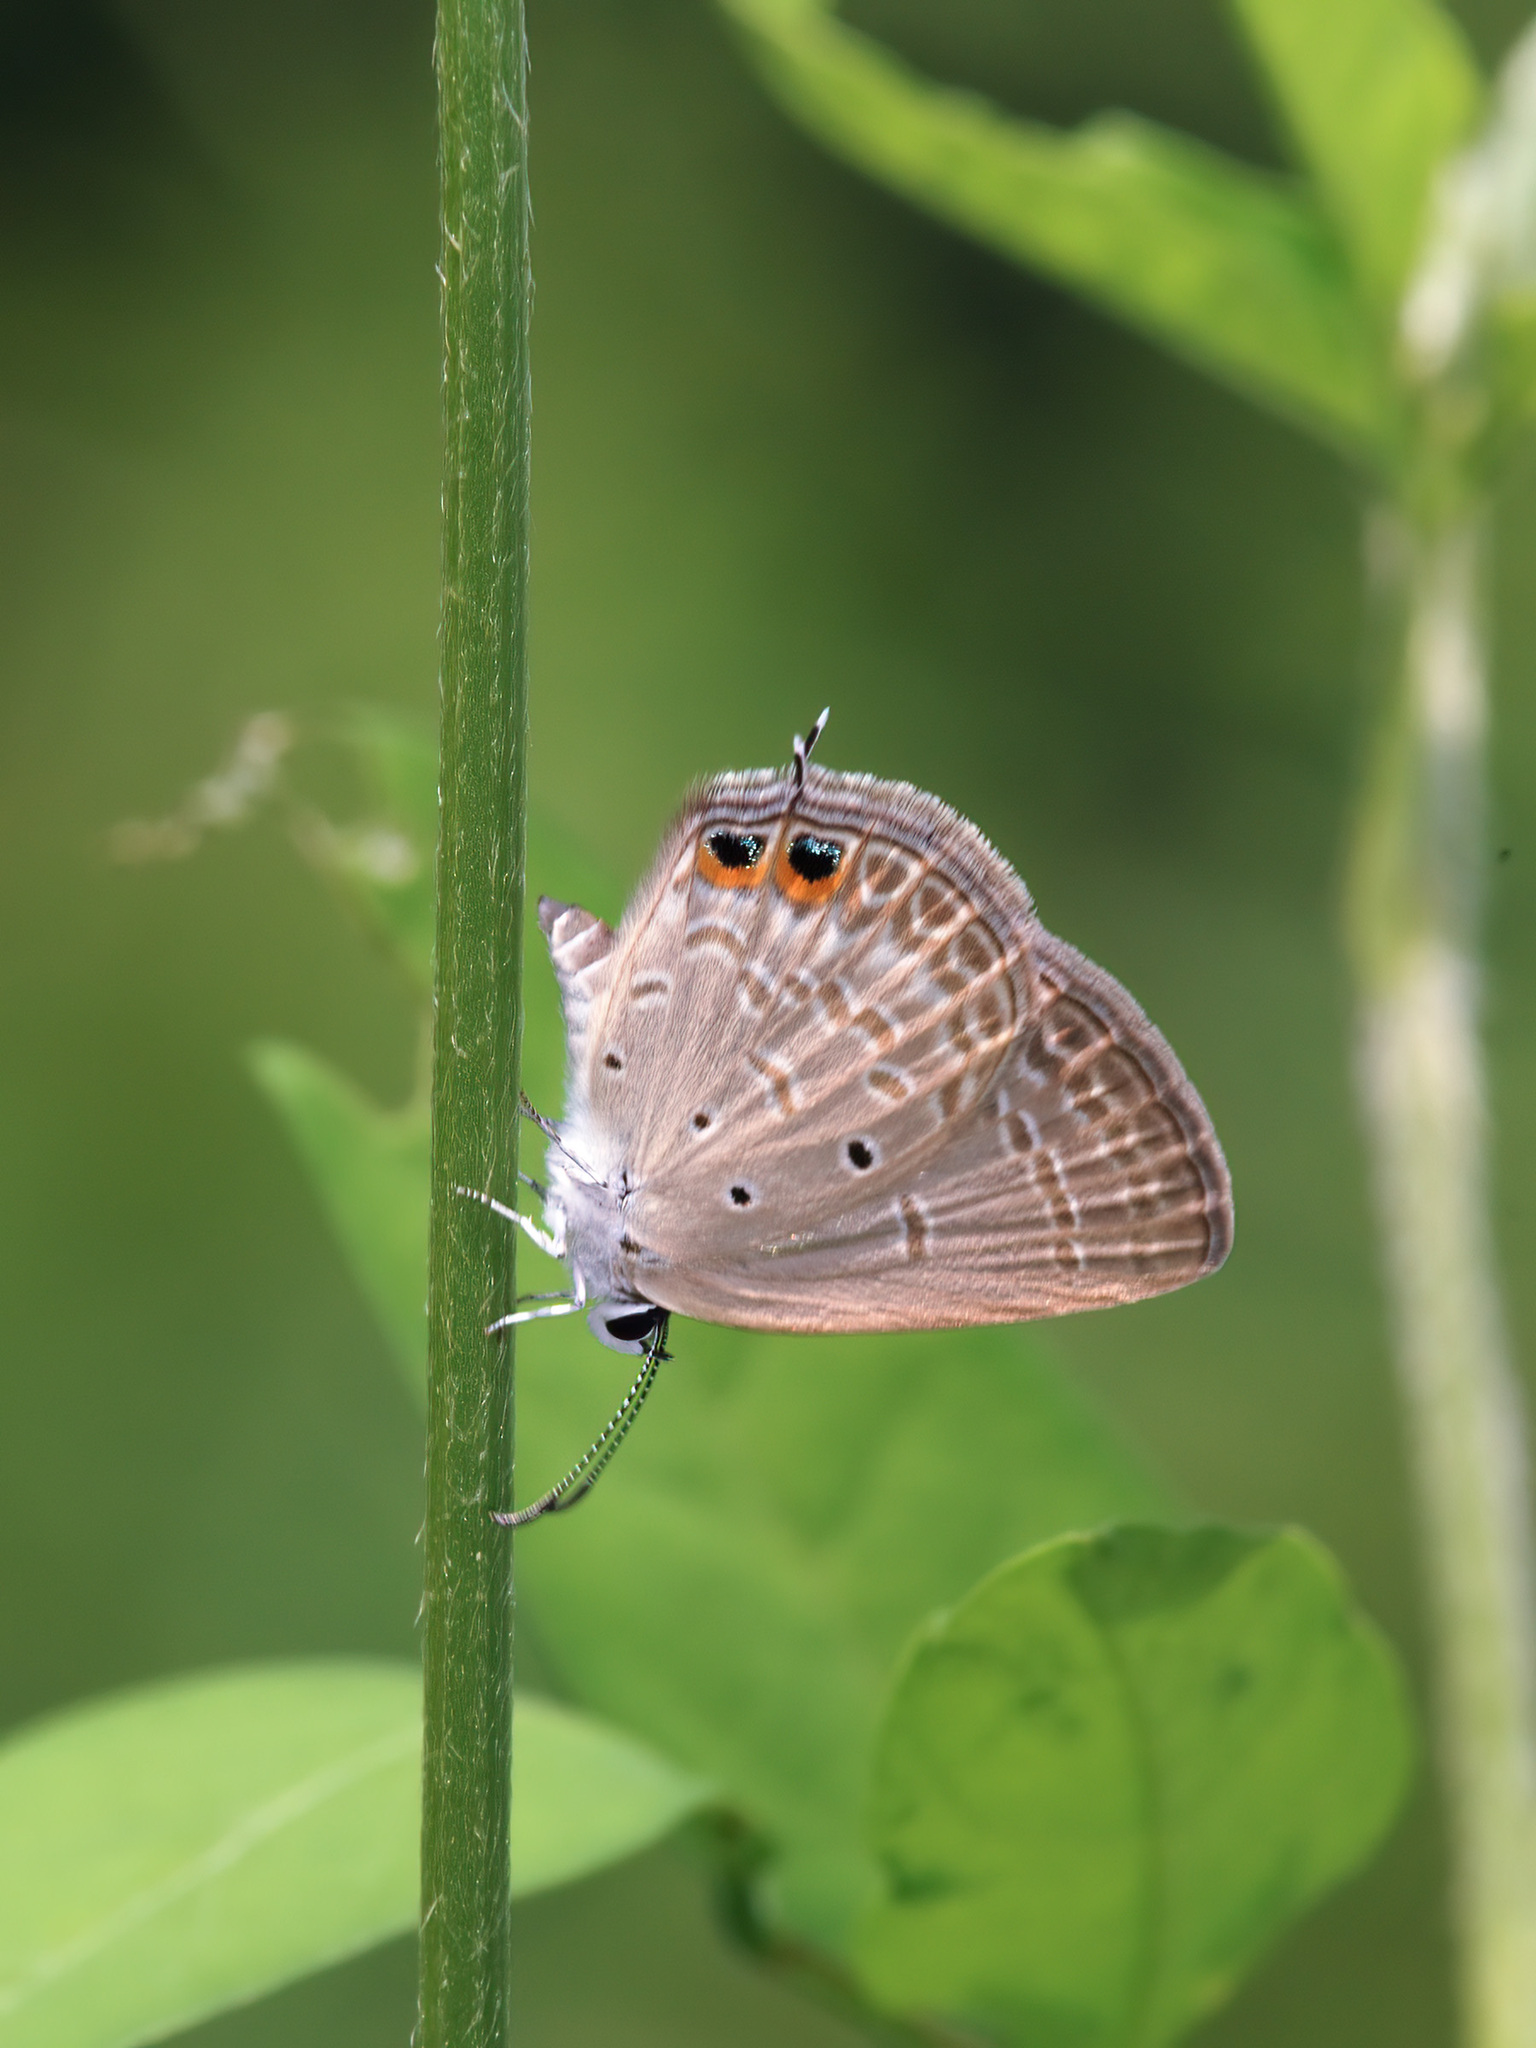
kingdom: Animalia
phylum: Arthropoda
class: Insecta
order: Lepidoptera
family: Lycaenidae
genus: Euchrysops
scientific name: Euchrysops cnejus
